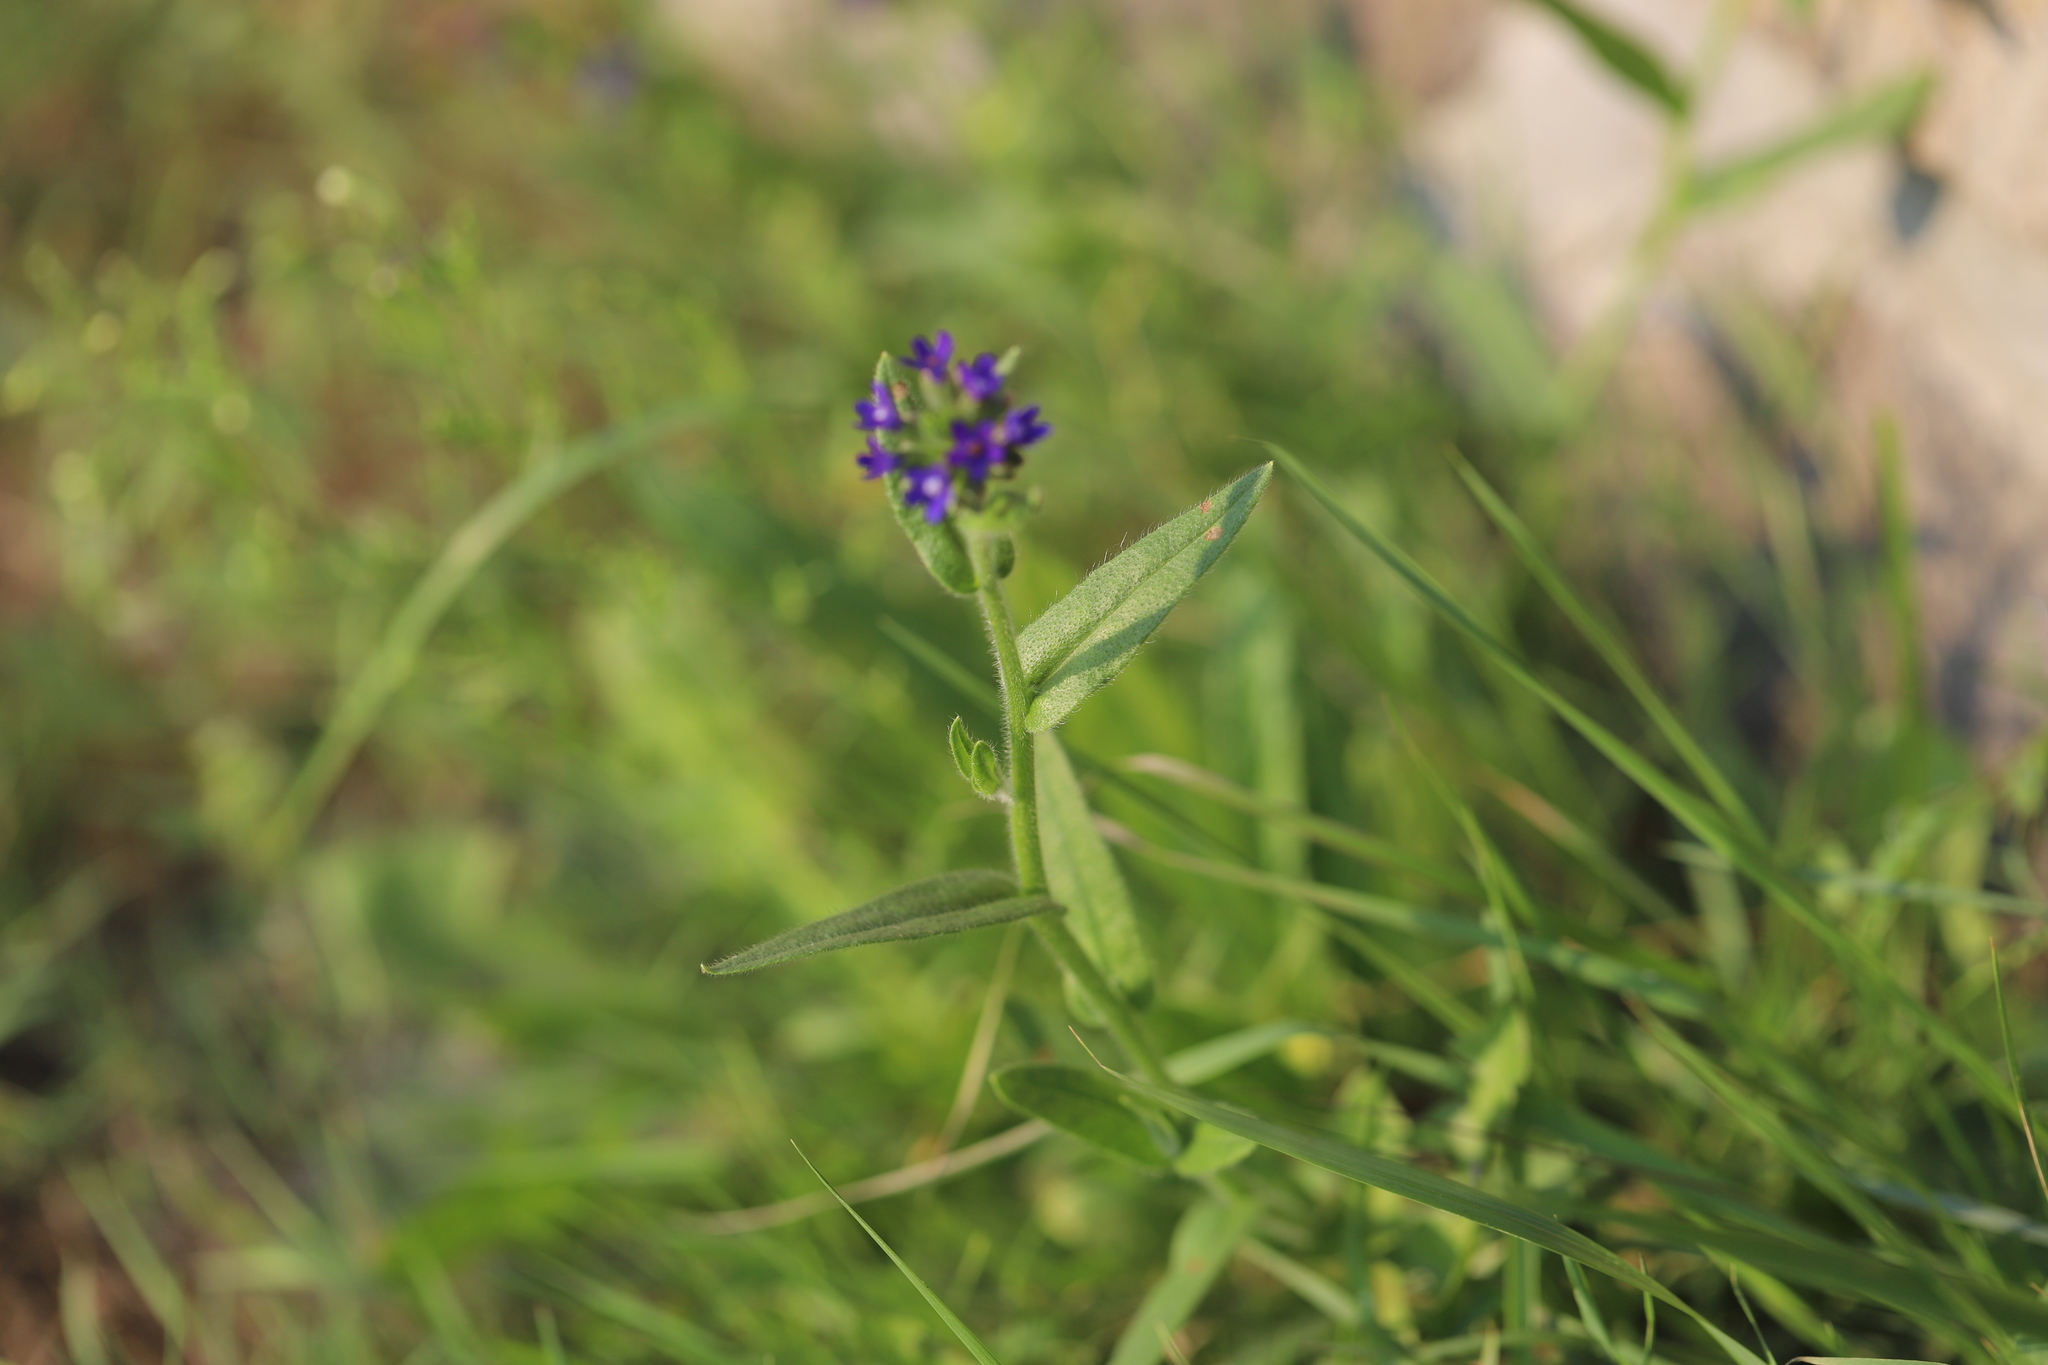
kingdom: Plantae
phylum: Tracheophyta
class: Magnoliopsida
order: Boraginales
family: Boraginaceae
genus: Anchusa
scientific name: Anchusa officinalis
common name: Alkanet
